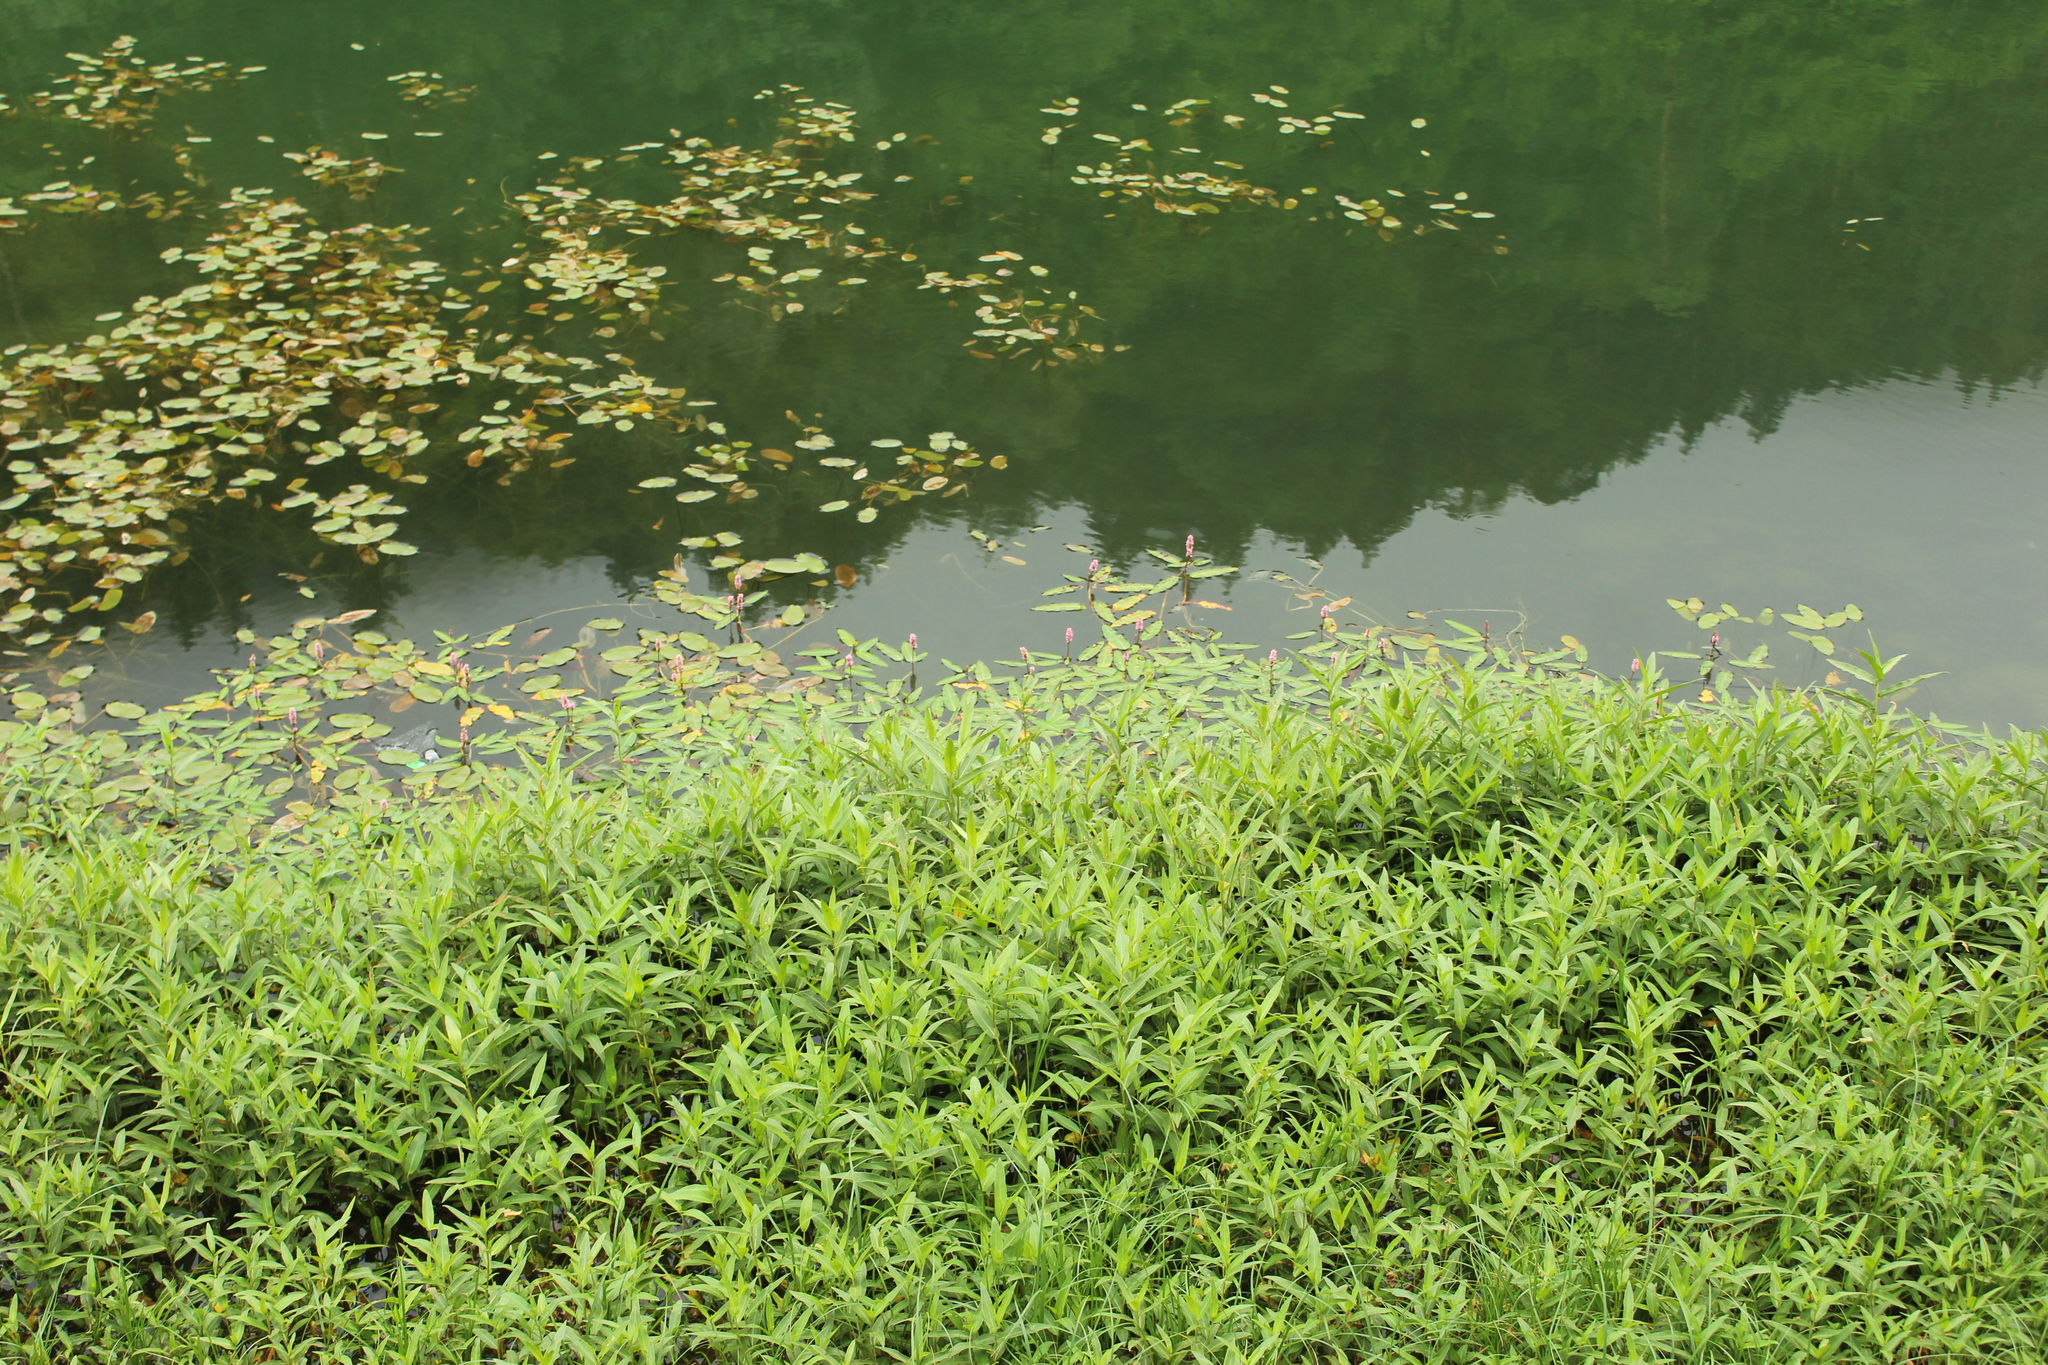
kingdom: Plantae
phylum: Tracheophyta
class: Magnoliopsida
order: Caryophyllales
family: Polygonaceae
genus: Persicaria
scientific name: Persicaria amphibia
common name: Amphibious bistort
